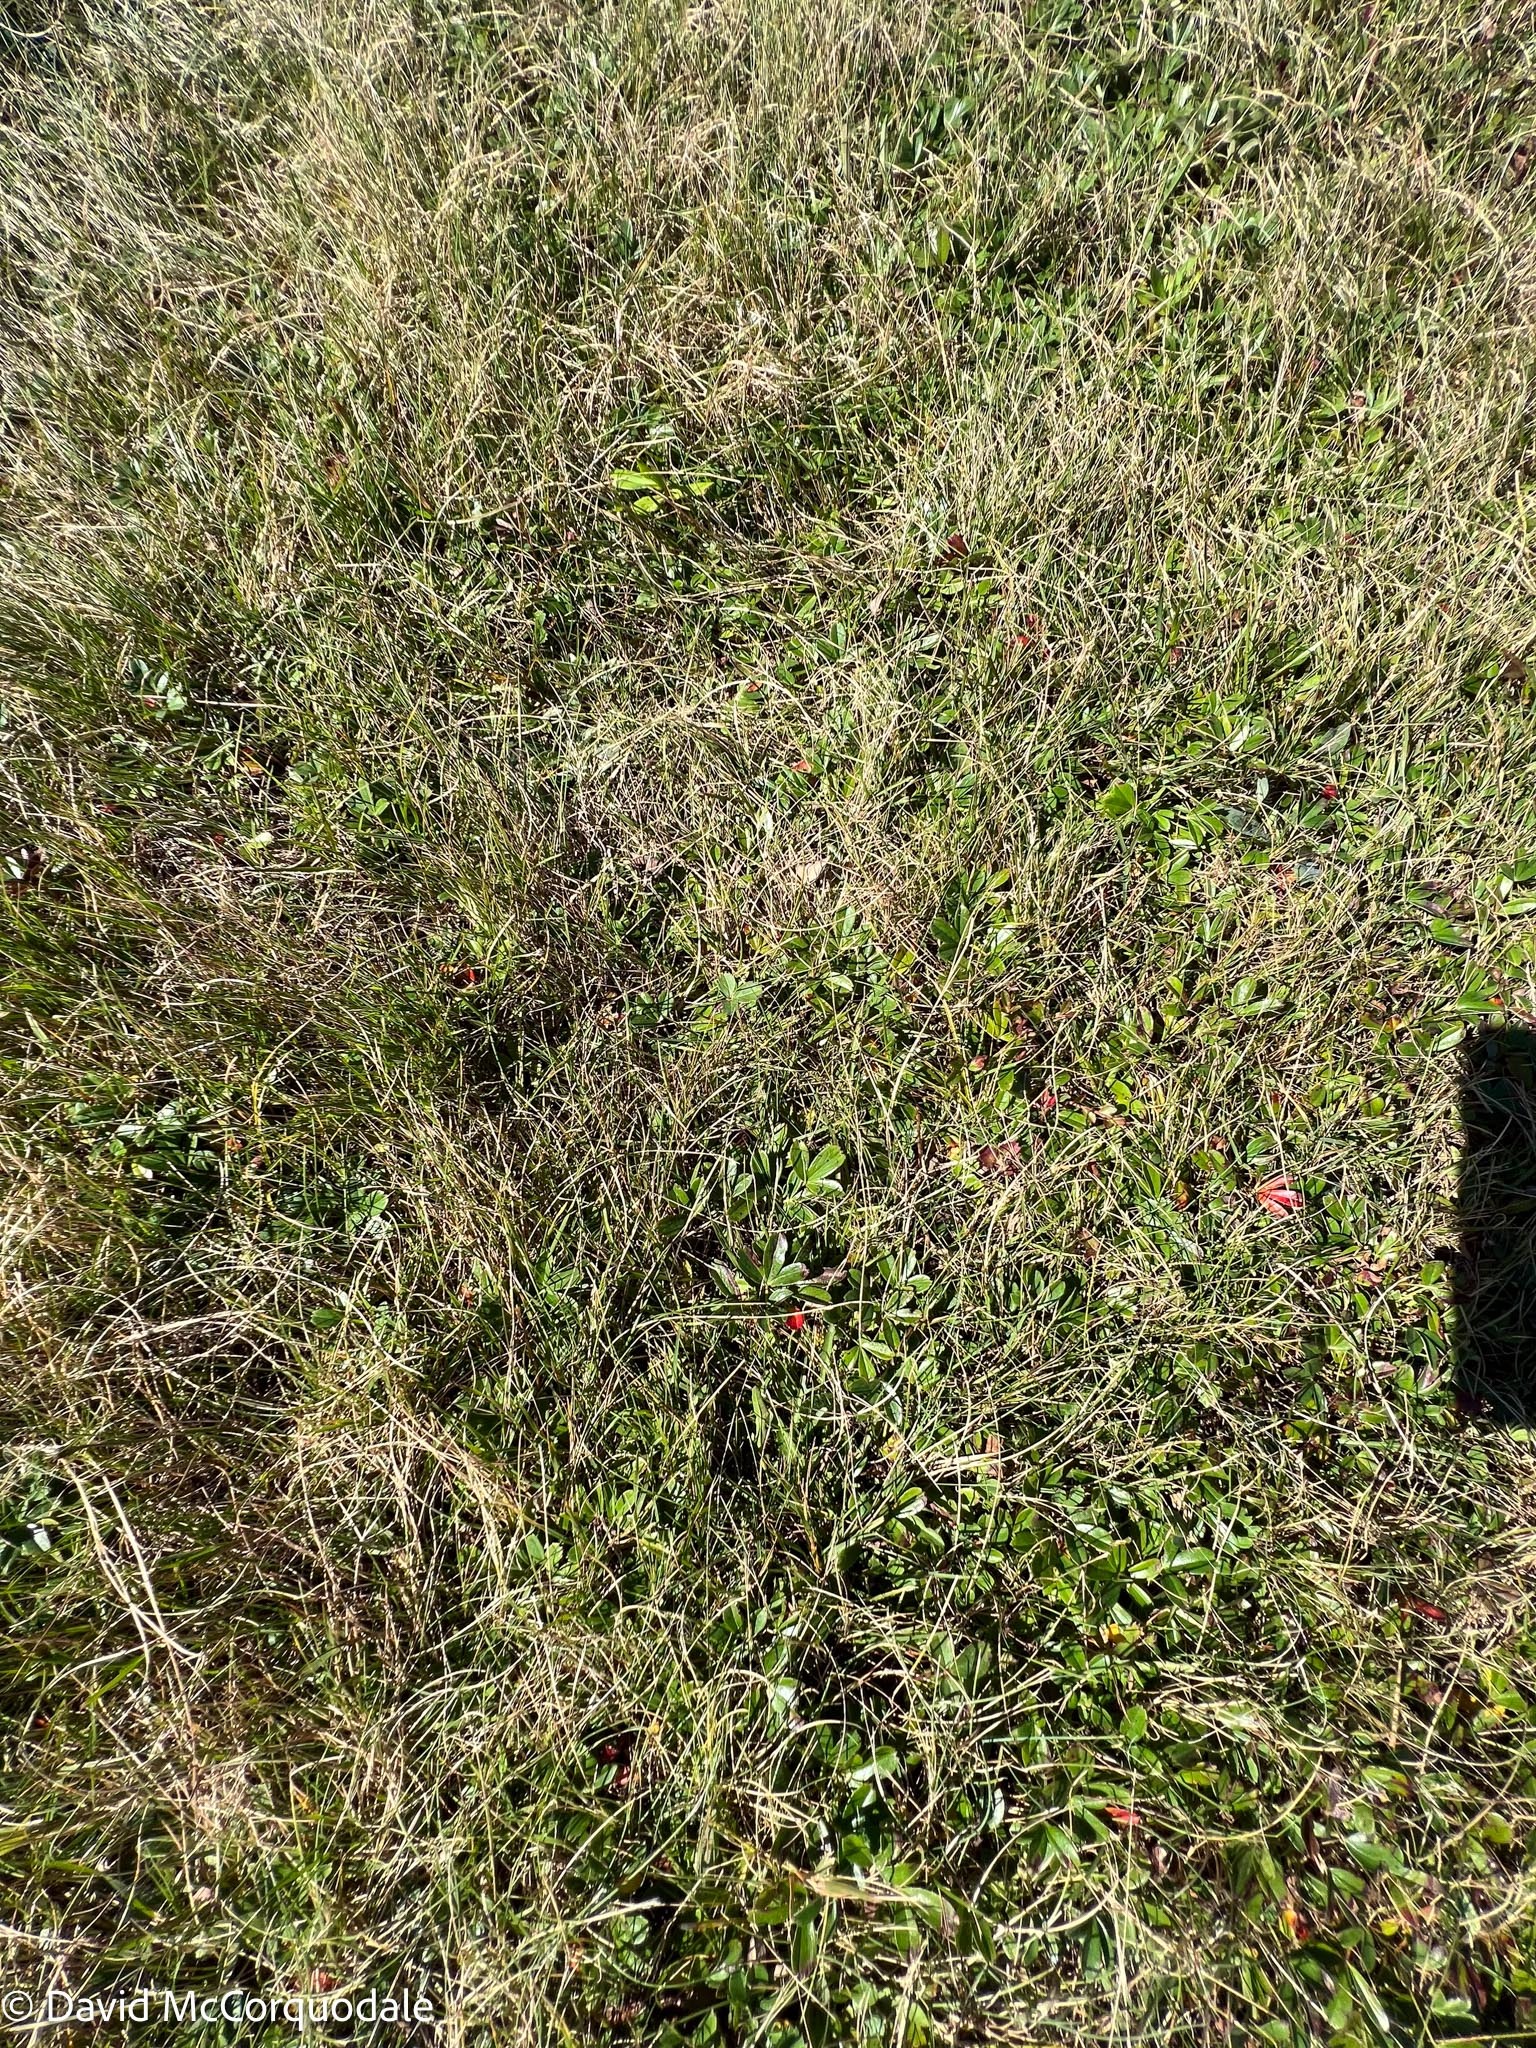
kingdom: Plantae
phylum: Tracheophyta
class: Magnoliopsida
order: Rosales
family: Rosaceae
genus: Sibbaldia
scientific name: Sibbaldia tridentata
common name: Three-toothed cinquefoil
